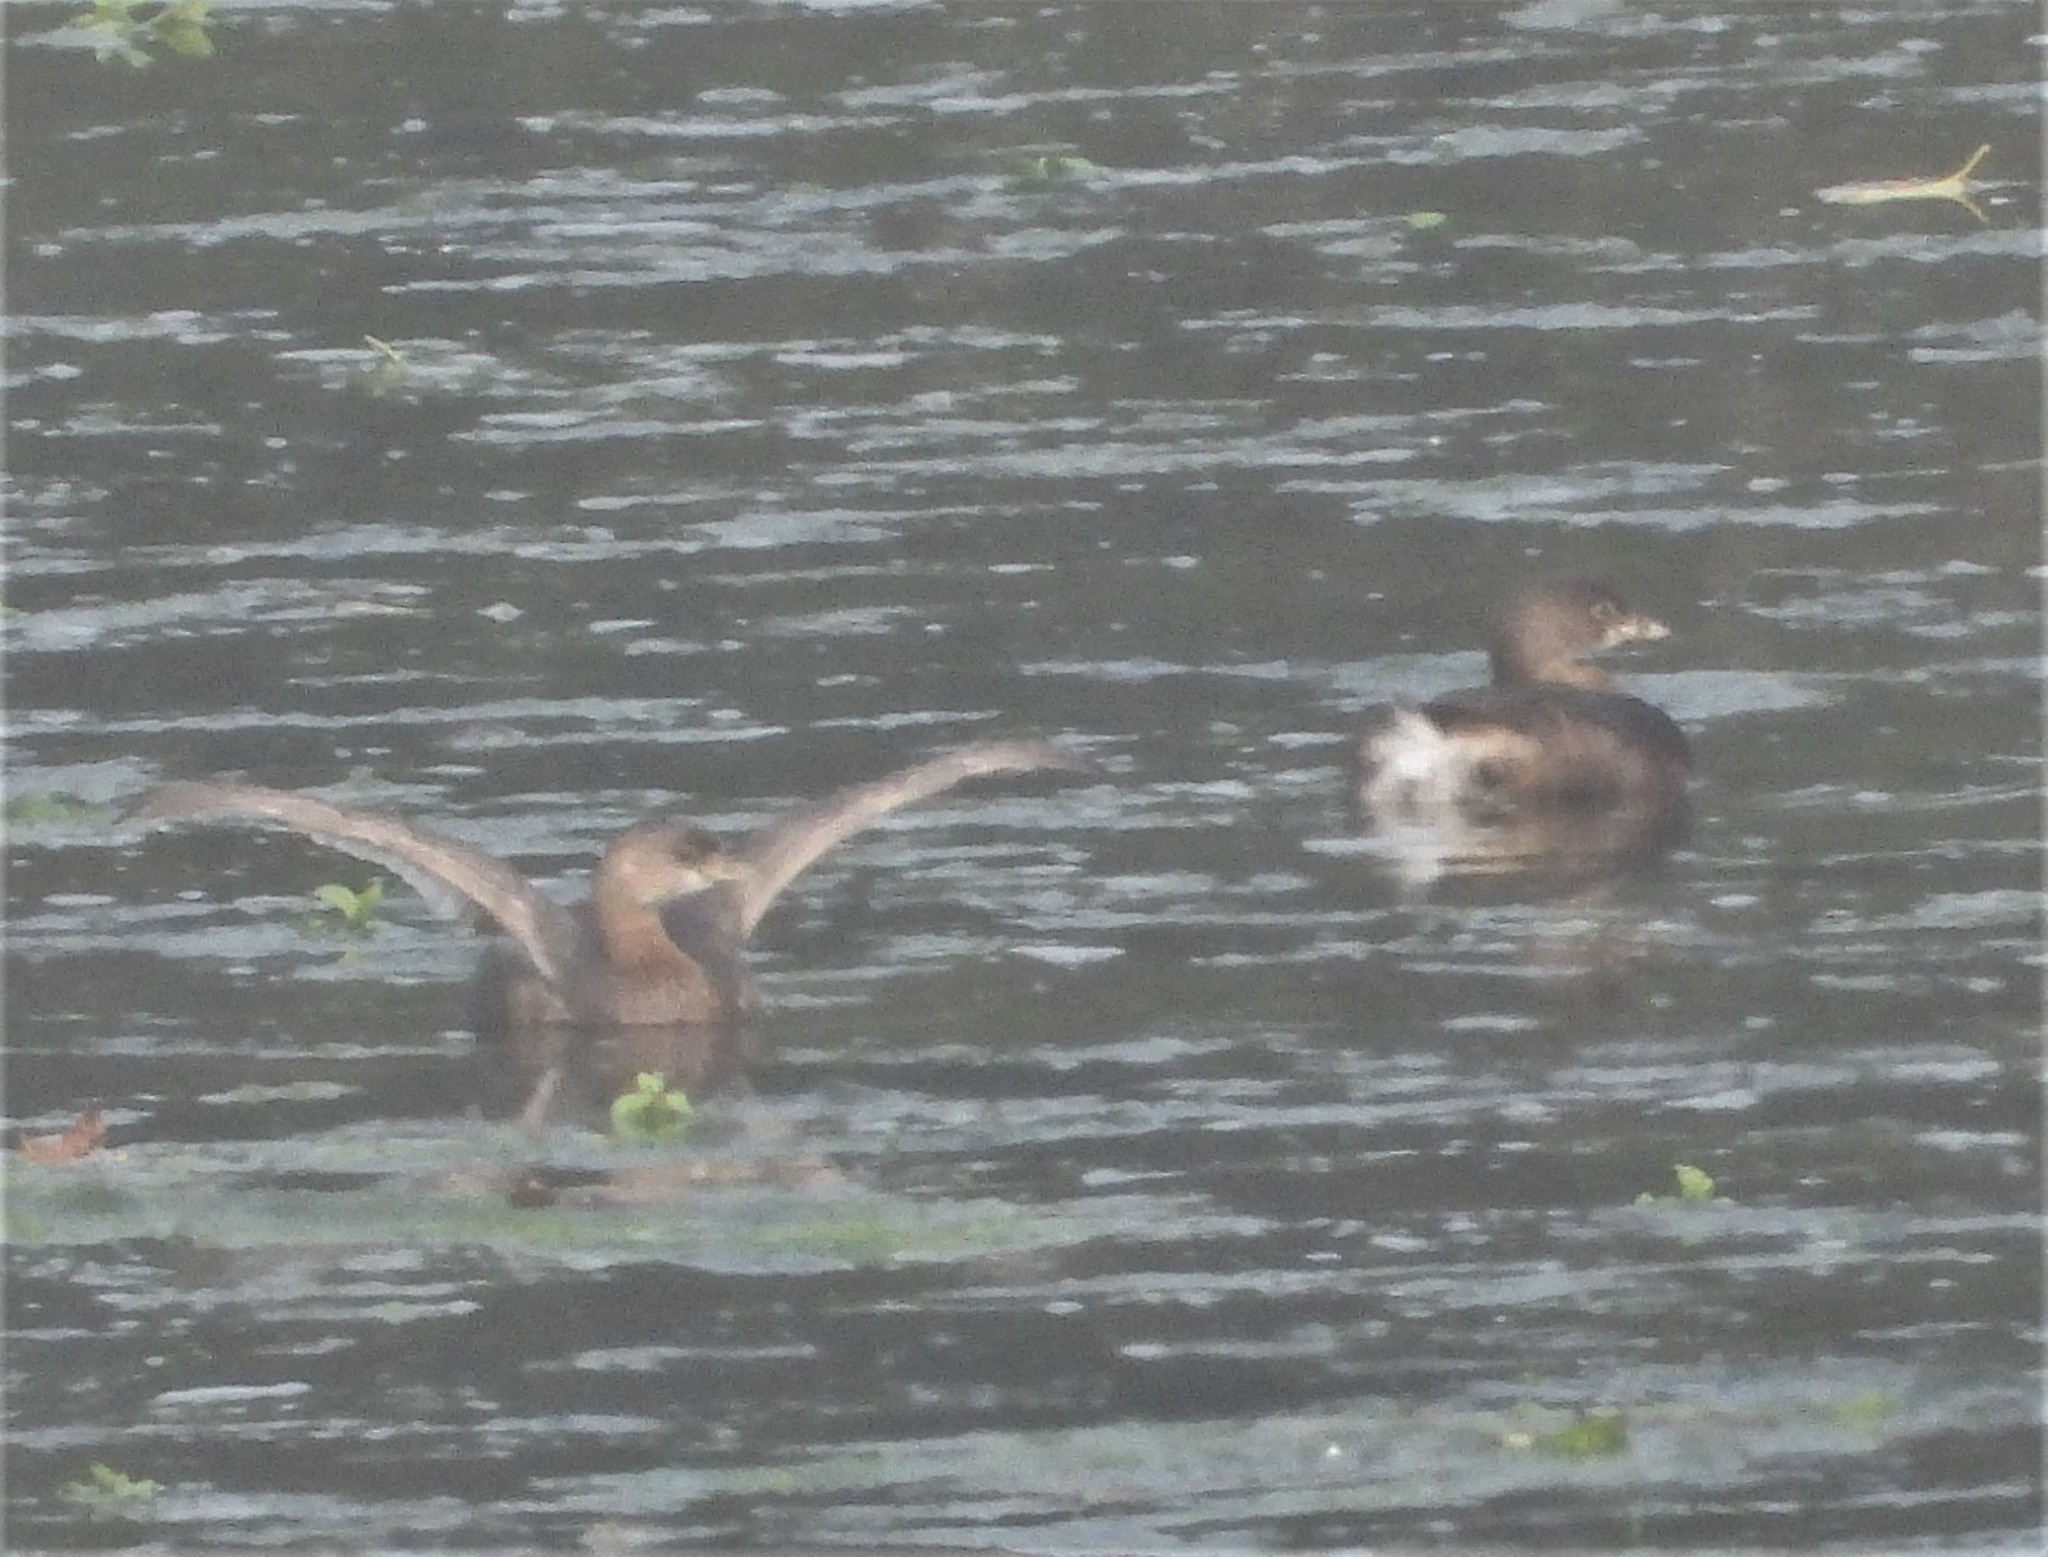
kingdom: Animalia
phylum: Chordata
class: Aves
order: Podicipediformes
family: Podicipedidae
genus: Podilymbus
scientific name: Podilymbus podiceps
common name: Pied-billed grebe
